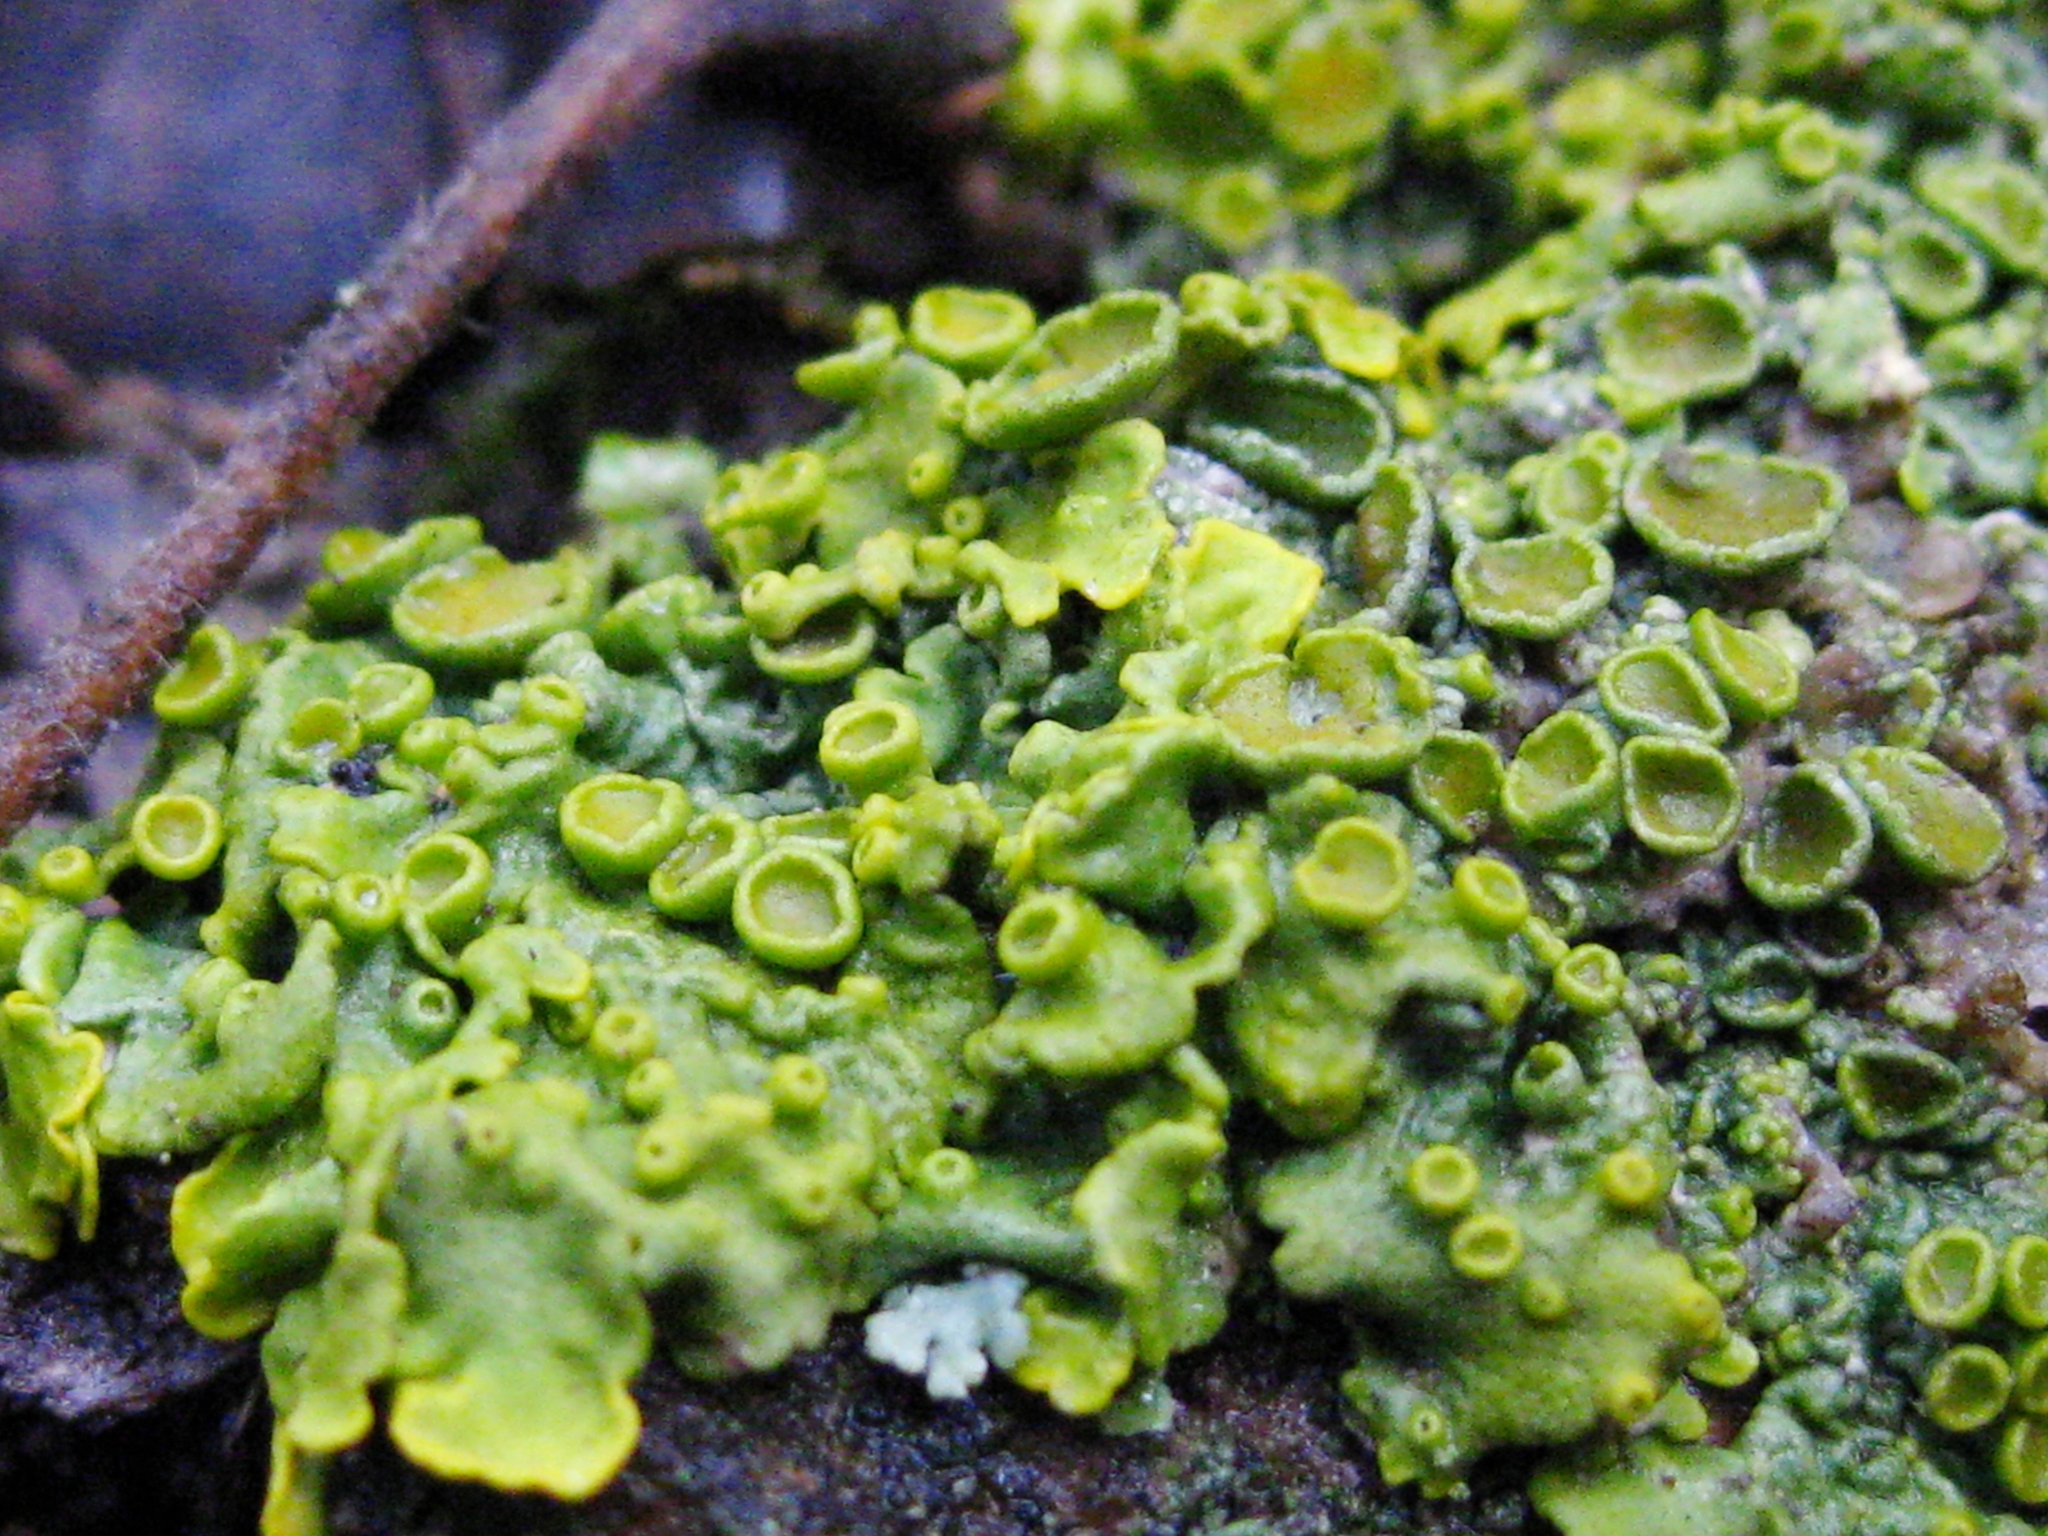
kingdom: Fungi
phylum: Ascomycota
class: Lecanoromycetes
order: Teloschistales
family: Teloschistaceae
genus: Xanthoria
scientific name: Xanthoria parietina
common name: Common orange lichen
